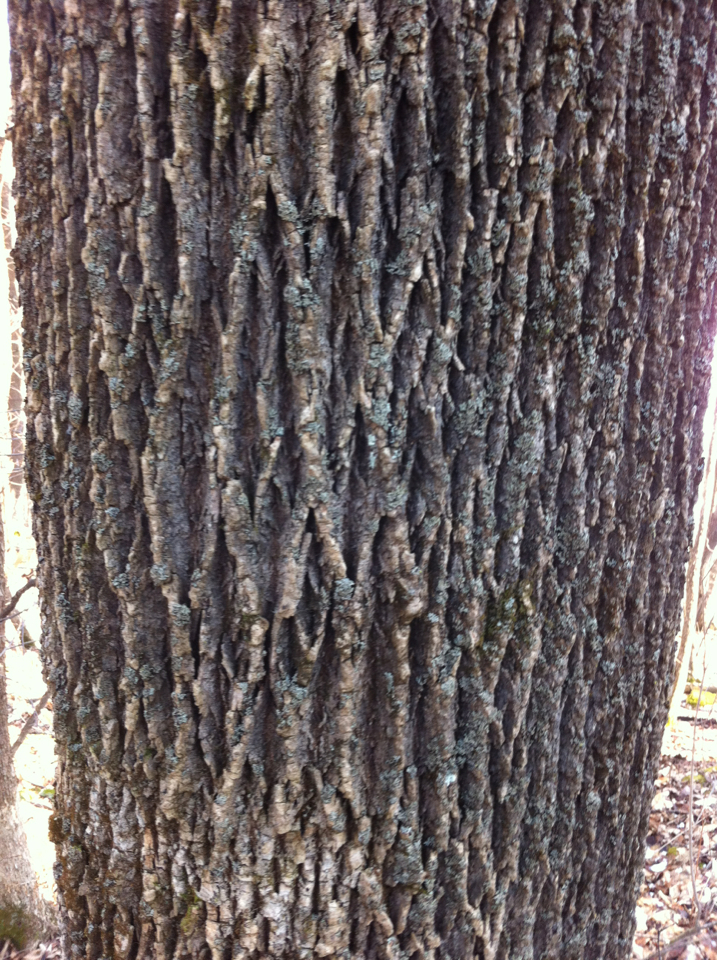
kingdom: Plantae
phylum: Tracheophyta
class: Magnoliopsida
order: Lamiales
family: Oleaceae
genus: Fraxinus
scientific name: Fraxinus americana
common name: White ash
